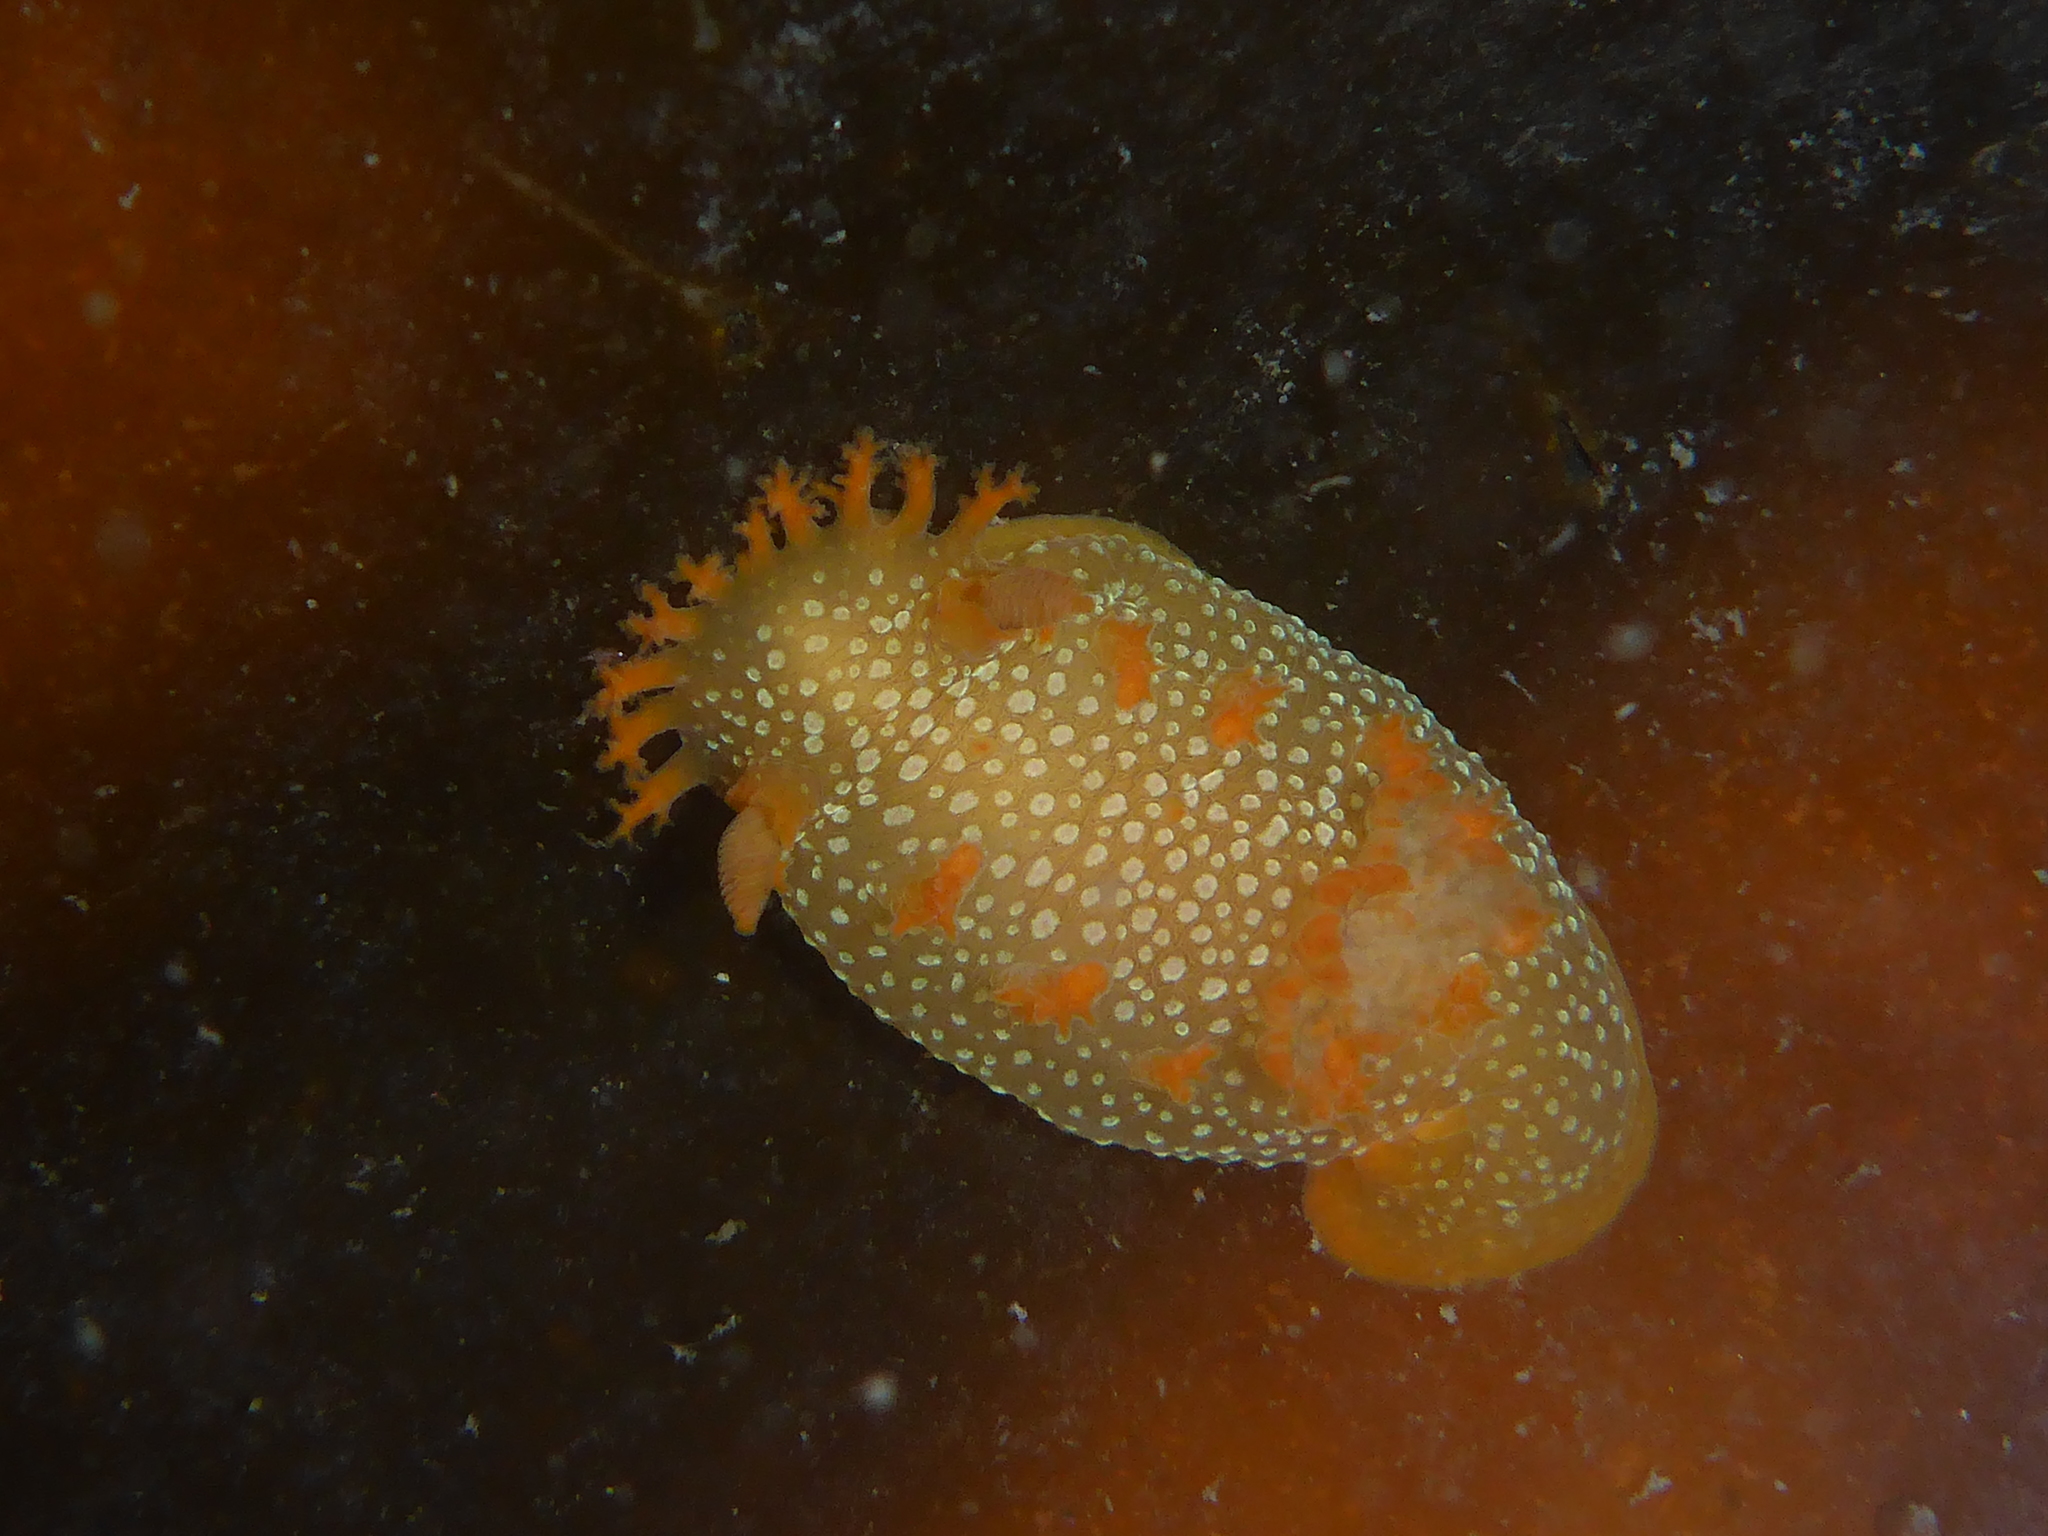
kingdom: Animalia
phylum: Mollusca
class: Gastropoda
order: Nudibranchia
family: Polyceridae
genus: Triopha
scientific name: Triopha maculata
